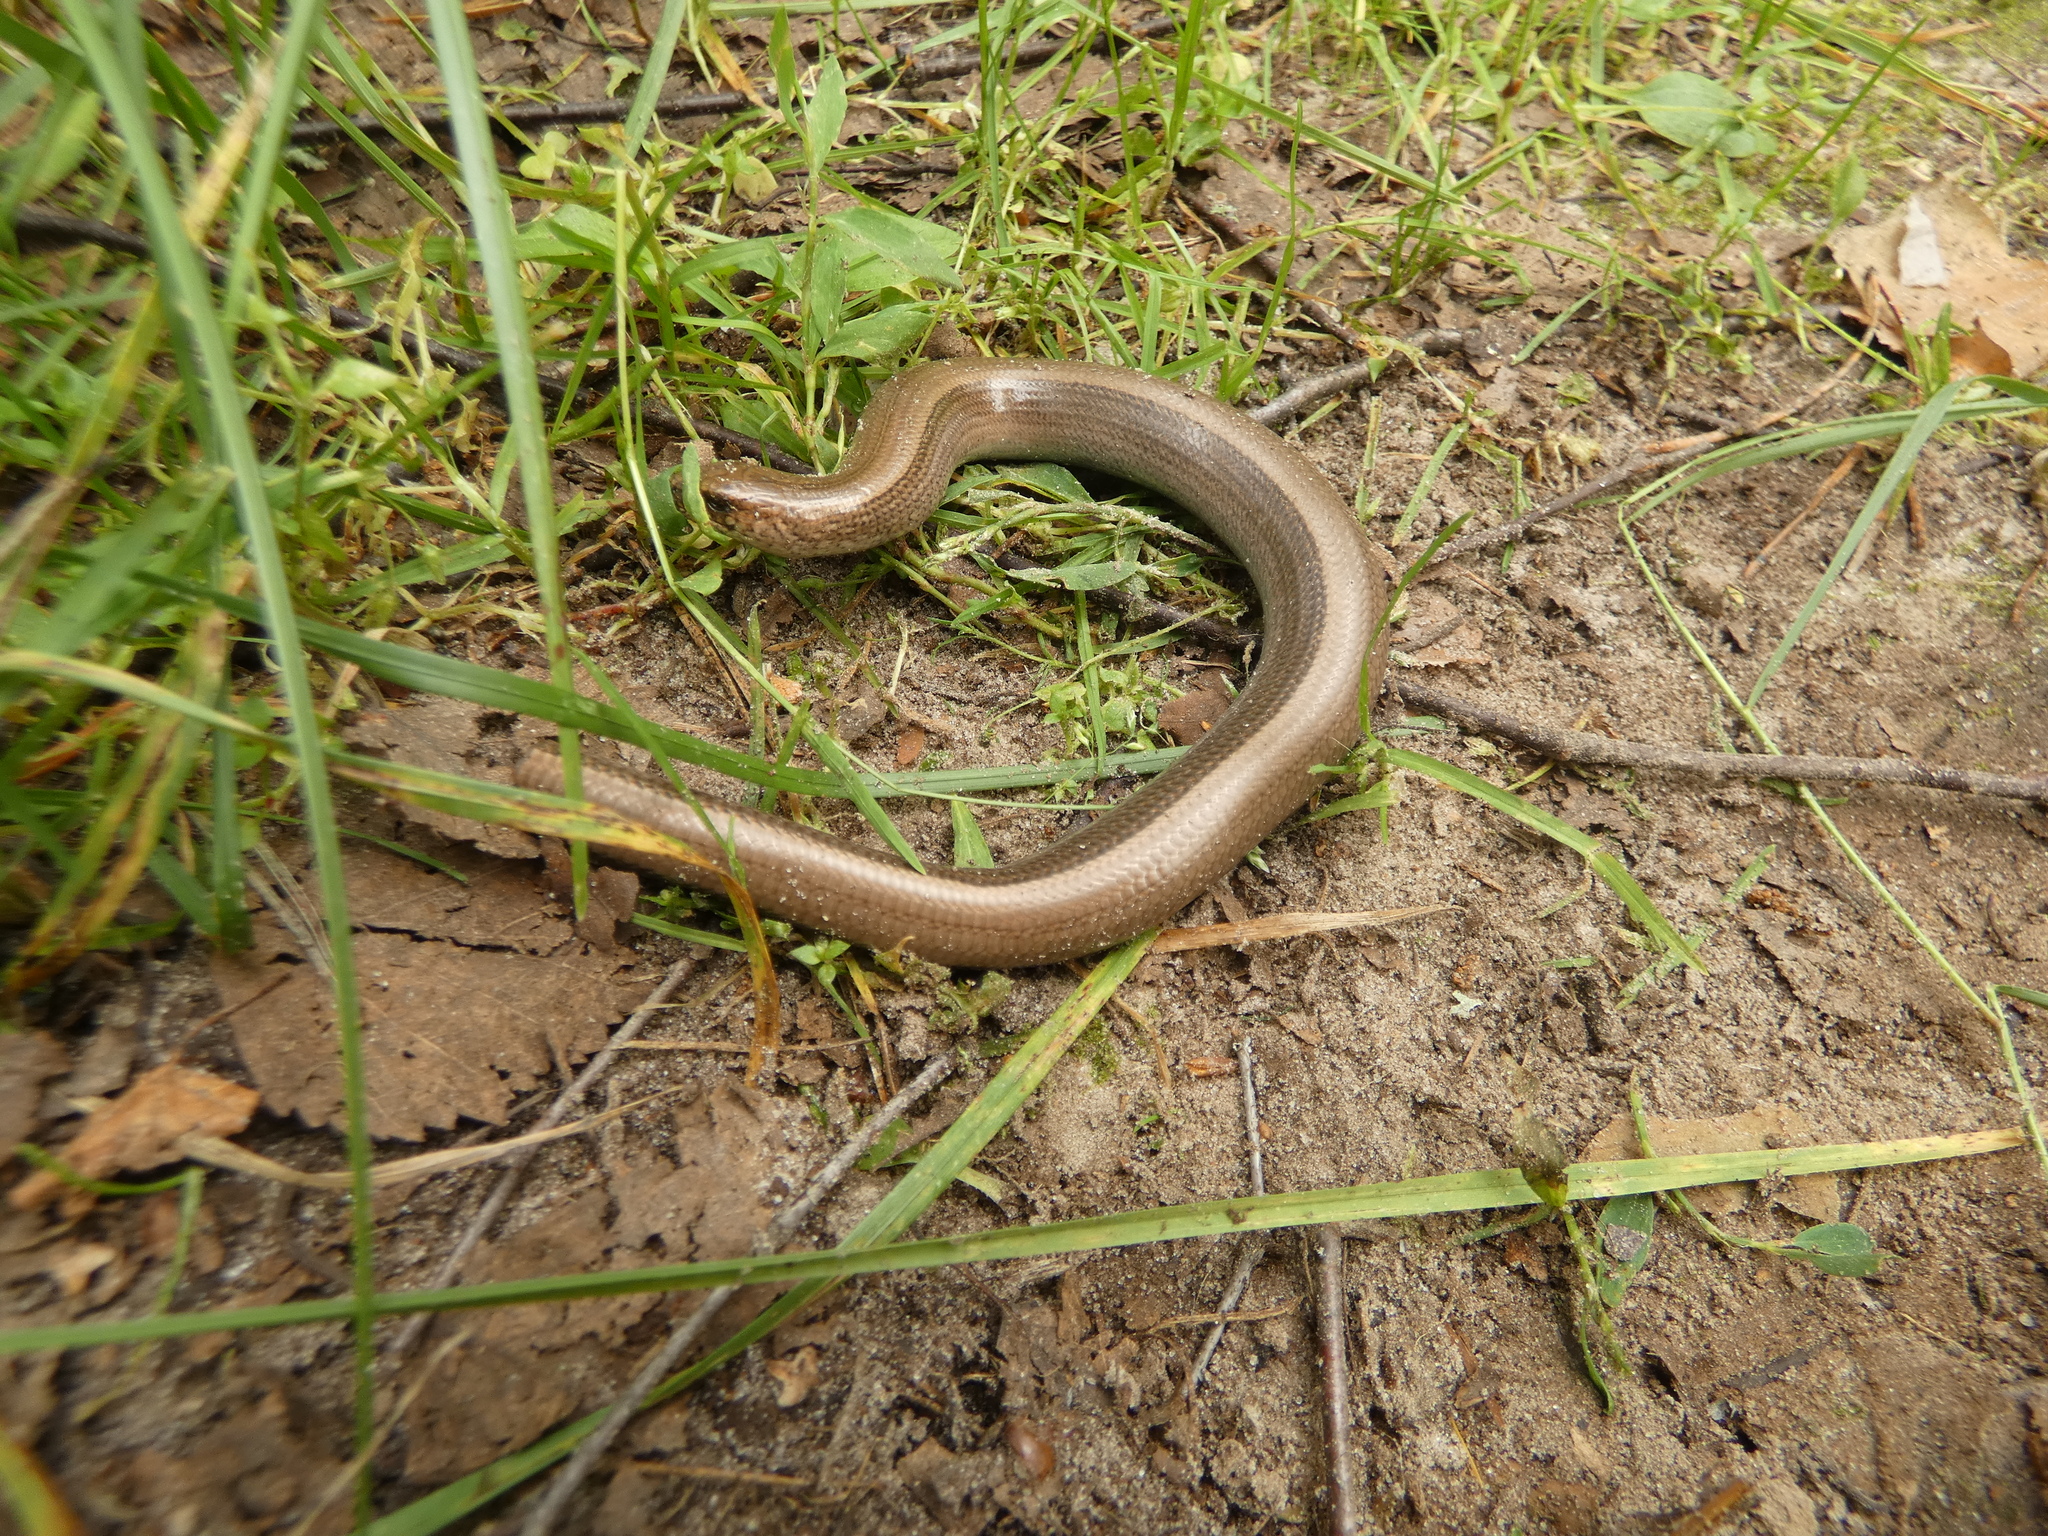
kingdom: Animalia
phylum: Chordata
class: Squamata
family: Anguidae
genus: Anguis
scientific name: Anguis colchica
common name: Slow worm
